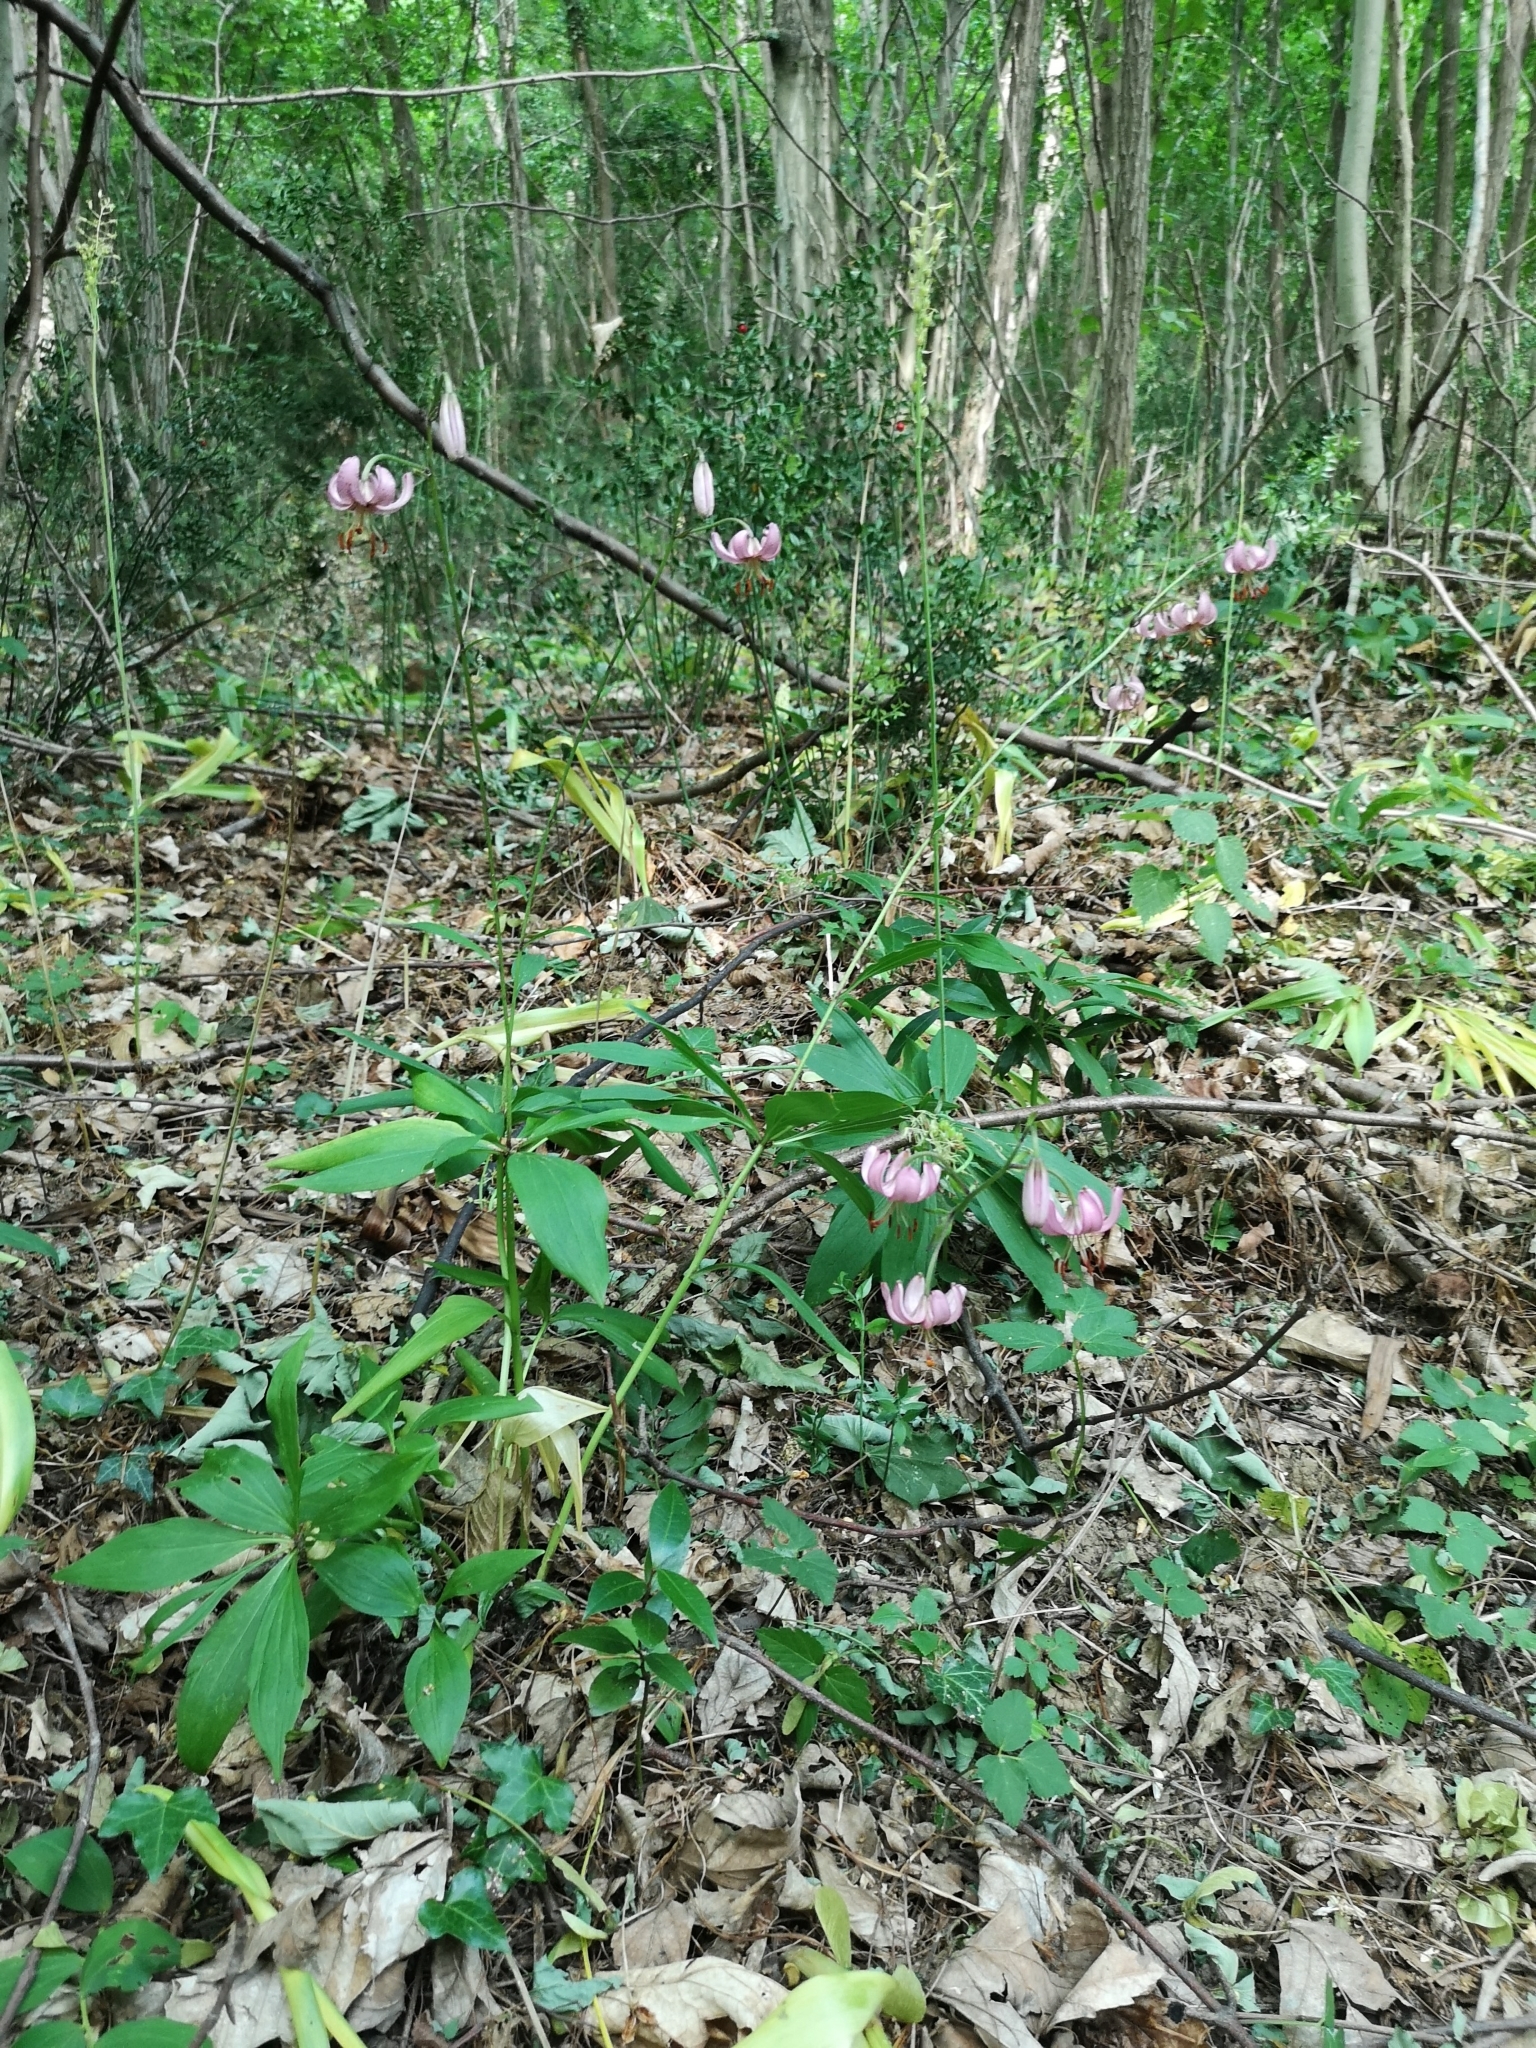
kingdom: Plantae
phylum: Tracheophyta
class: Liliopsida
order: Liliales
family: Liliaceae
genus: Lilium
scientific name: Lilium martagon
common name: Martagon lily
